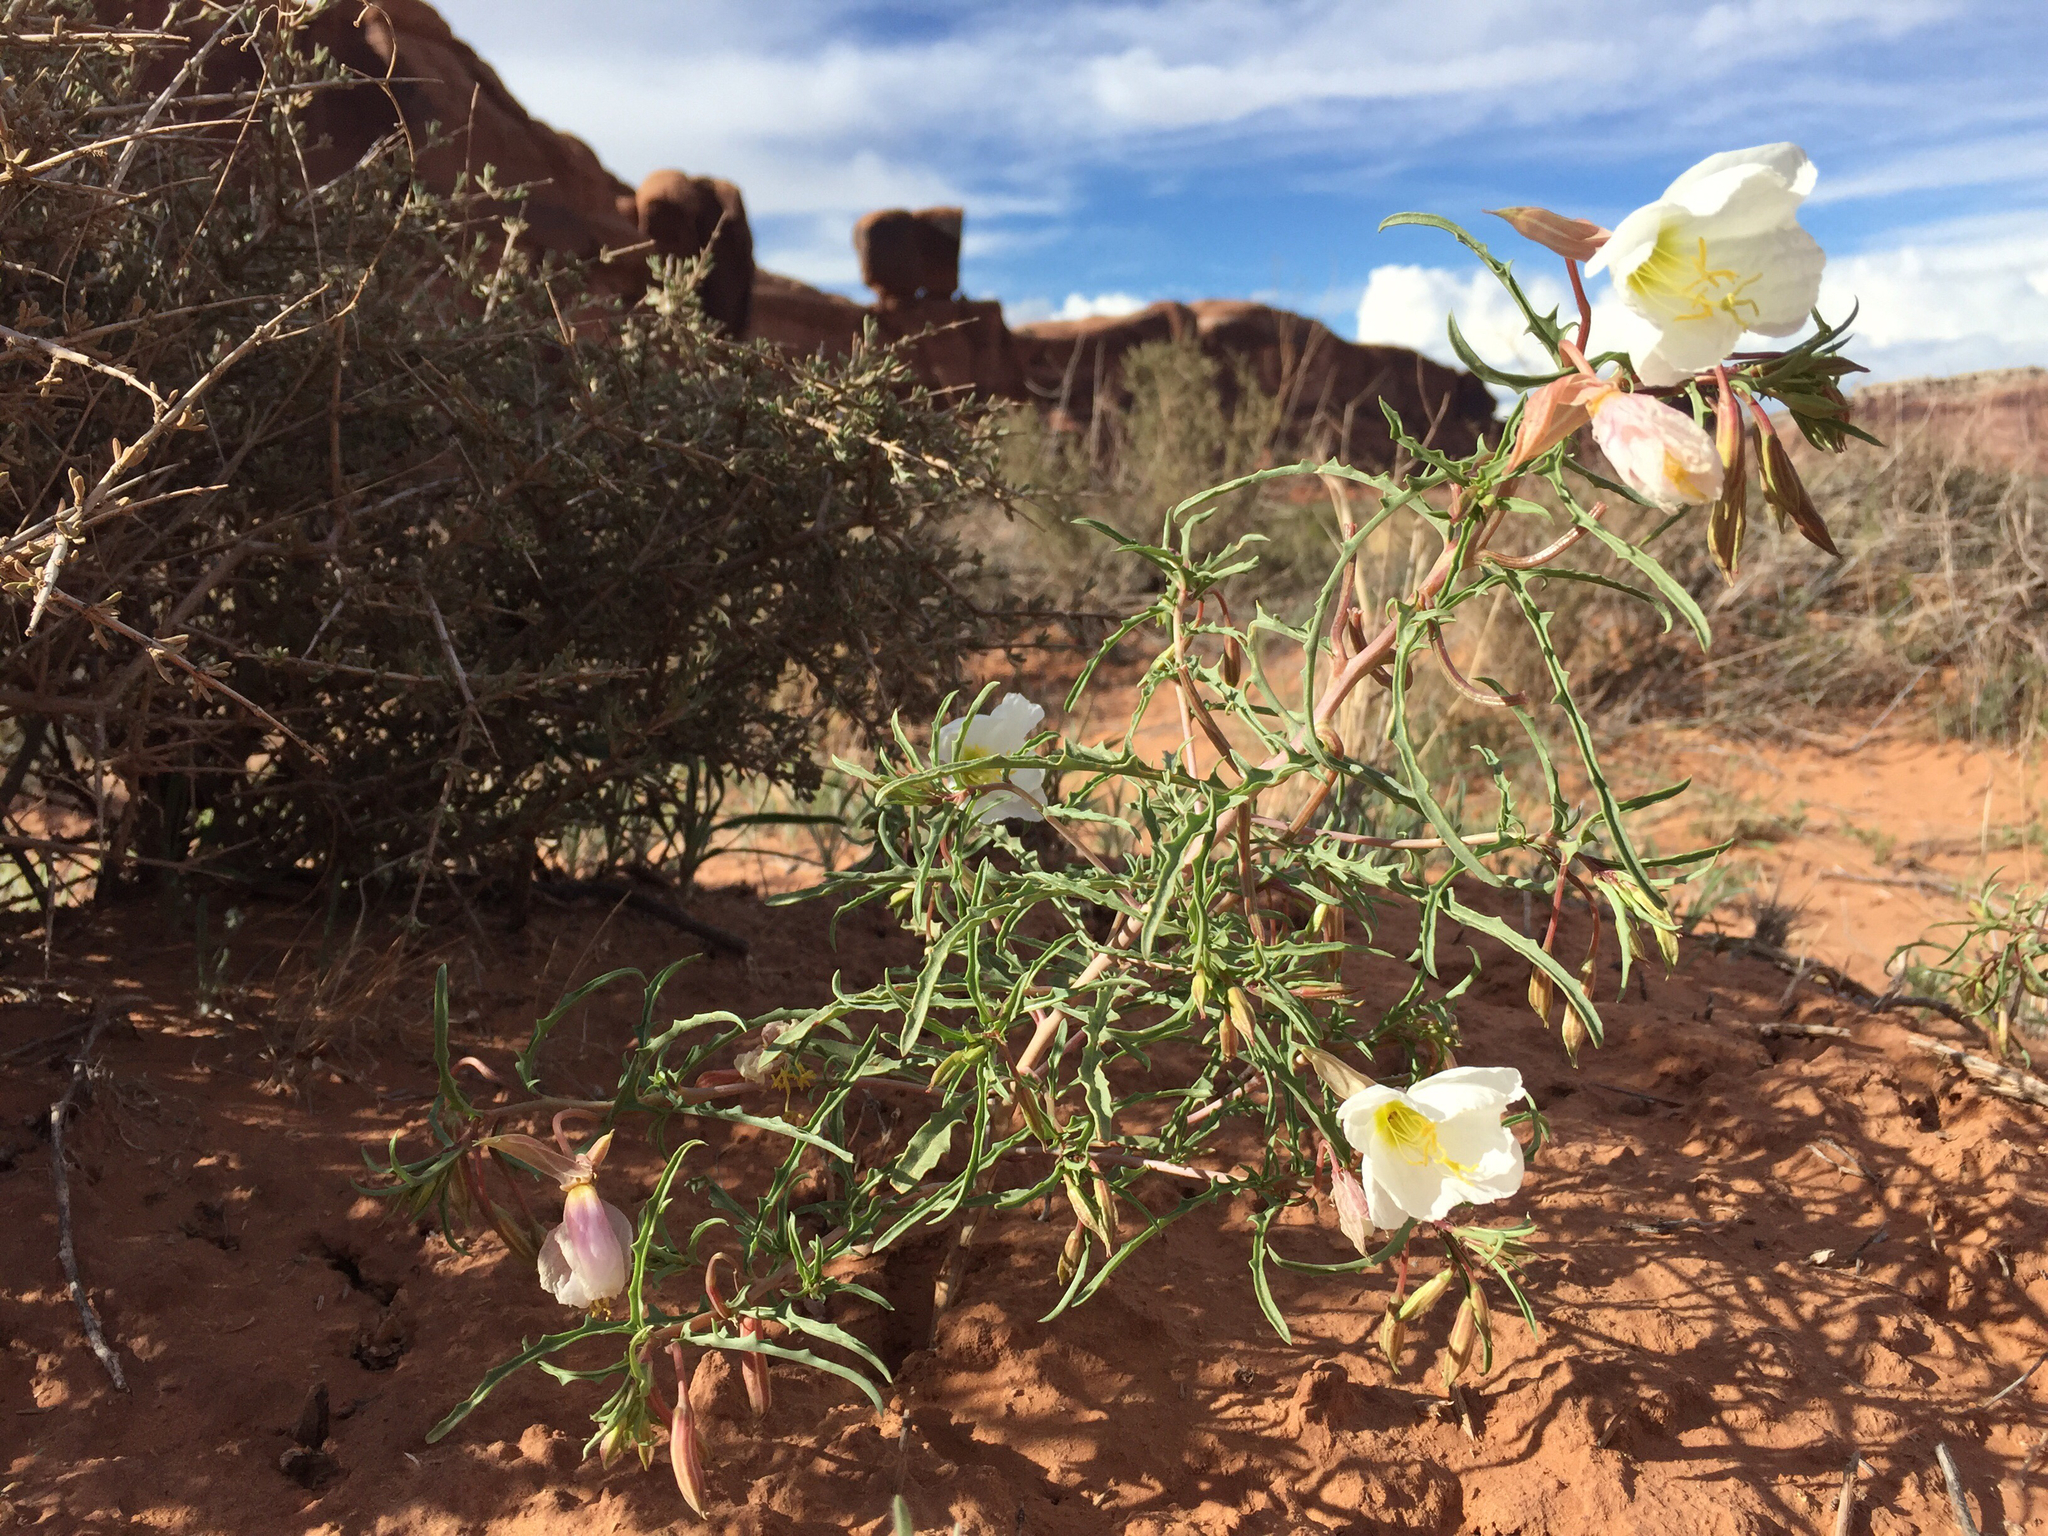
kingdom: Plantae
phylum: Tracheophyta
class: Magnoliopsida
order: Myrtales
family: Onagraceae
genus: Oenothera
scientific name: Oenothera pallida
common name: Pale evening-primrose
